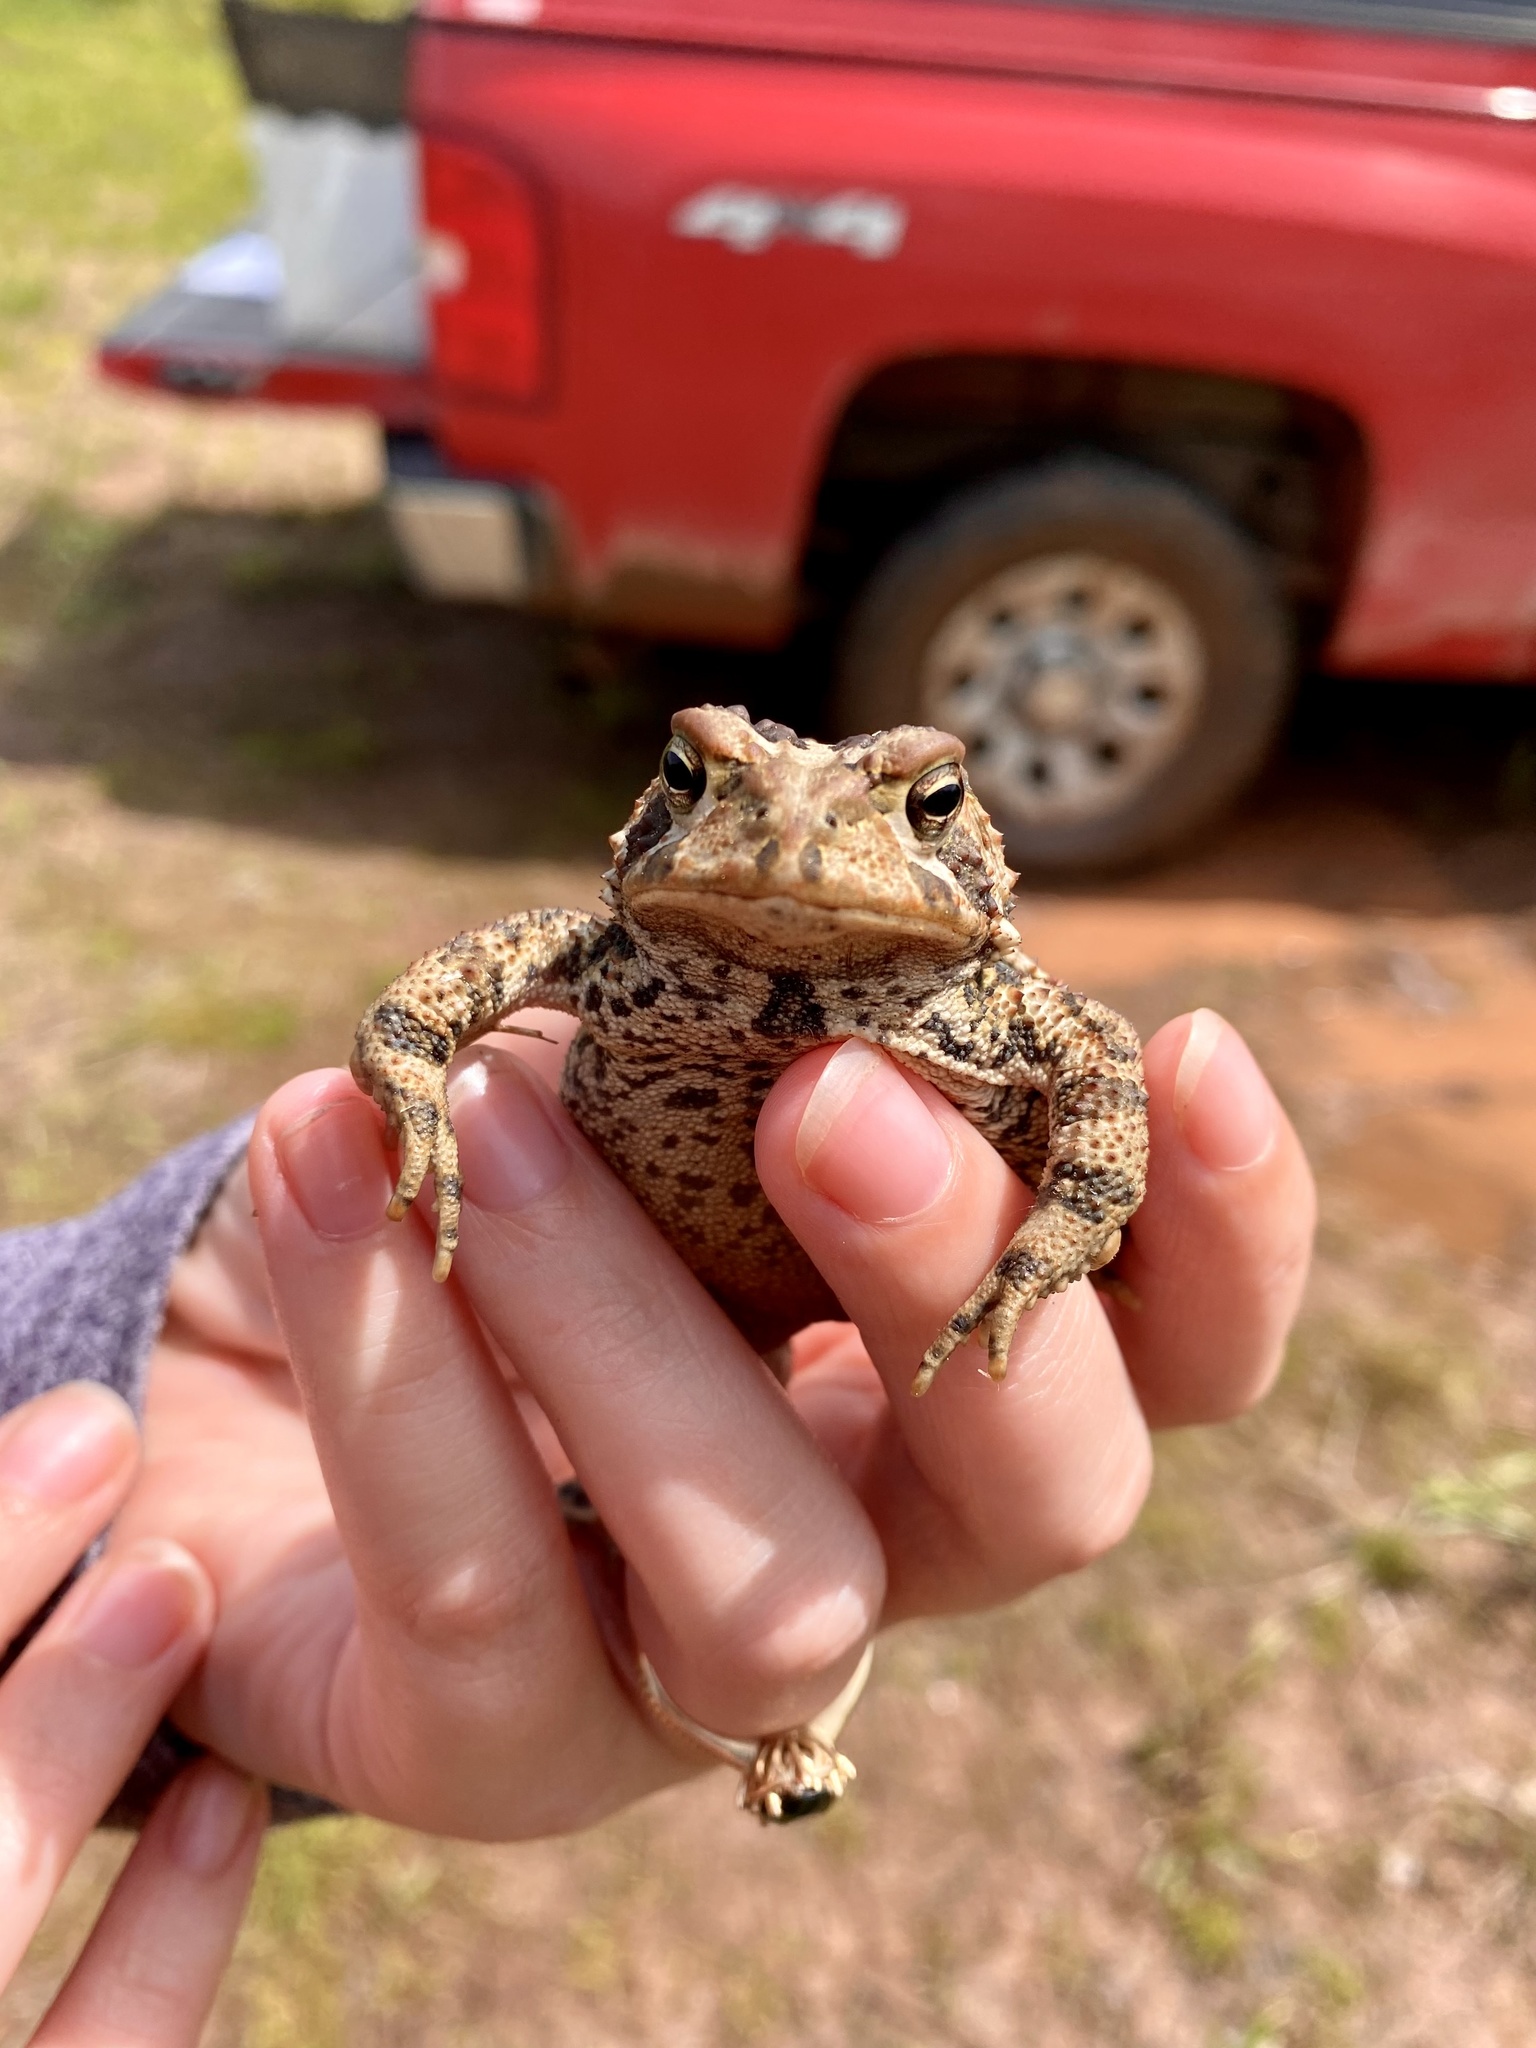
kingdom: Animalia
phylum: Chordata
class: Amphibia
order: Anura
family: Bufonidae
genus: Anaxyrus
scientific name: Anaxyrus americanus
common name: American toad
